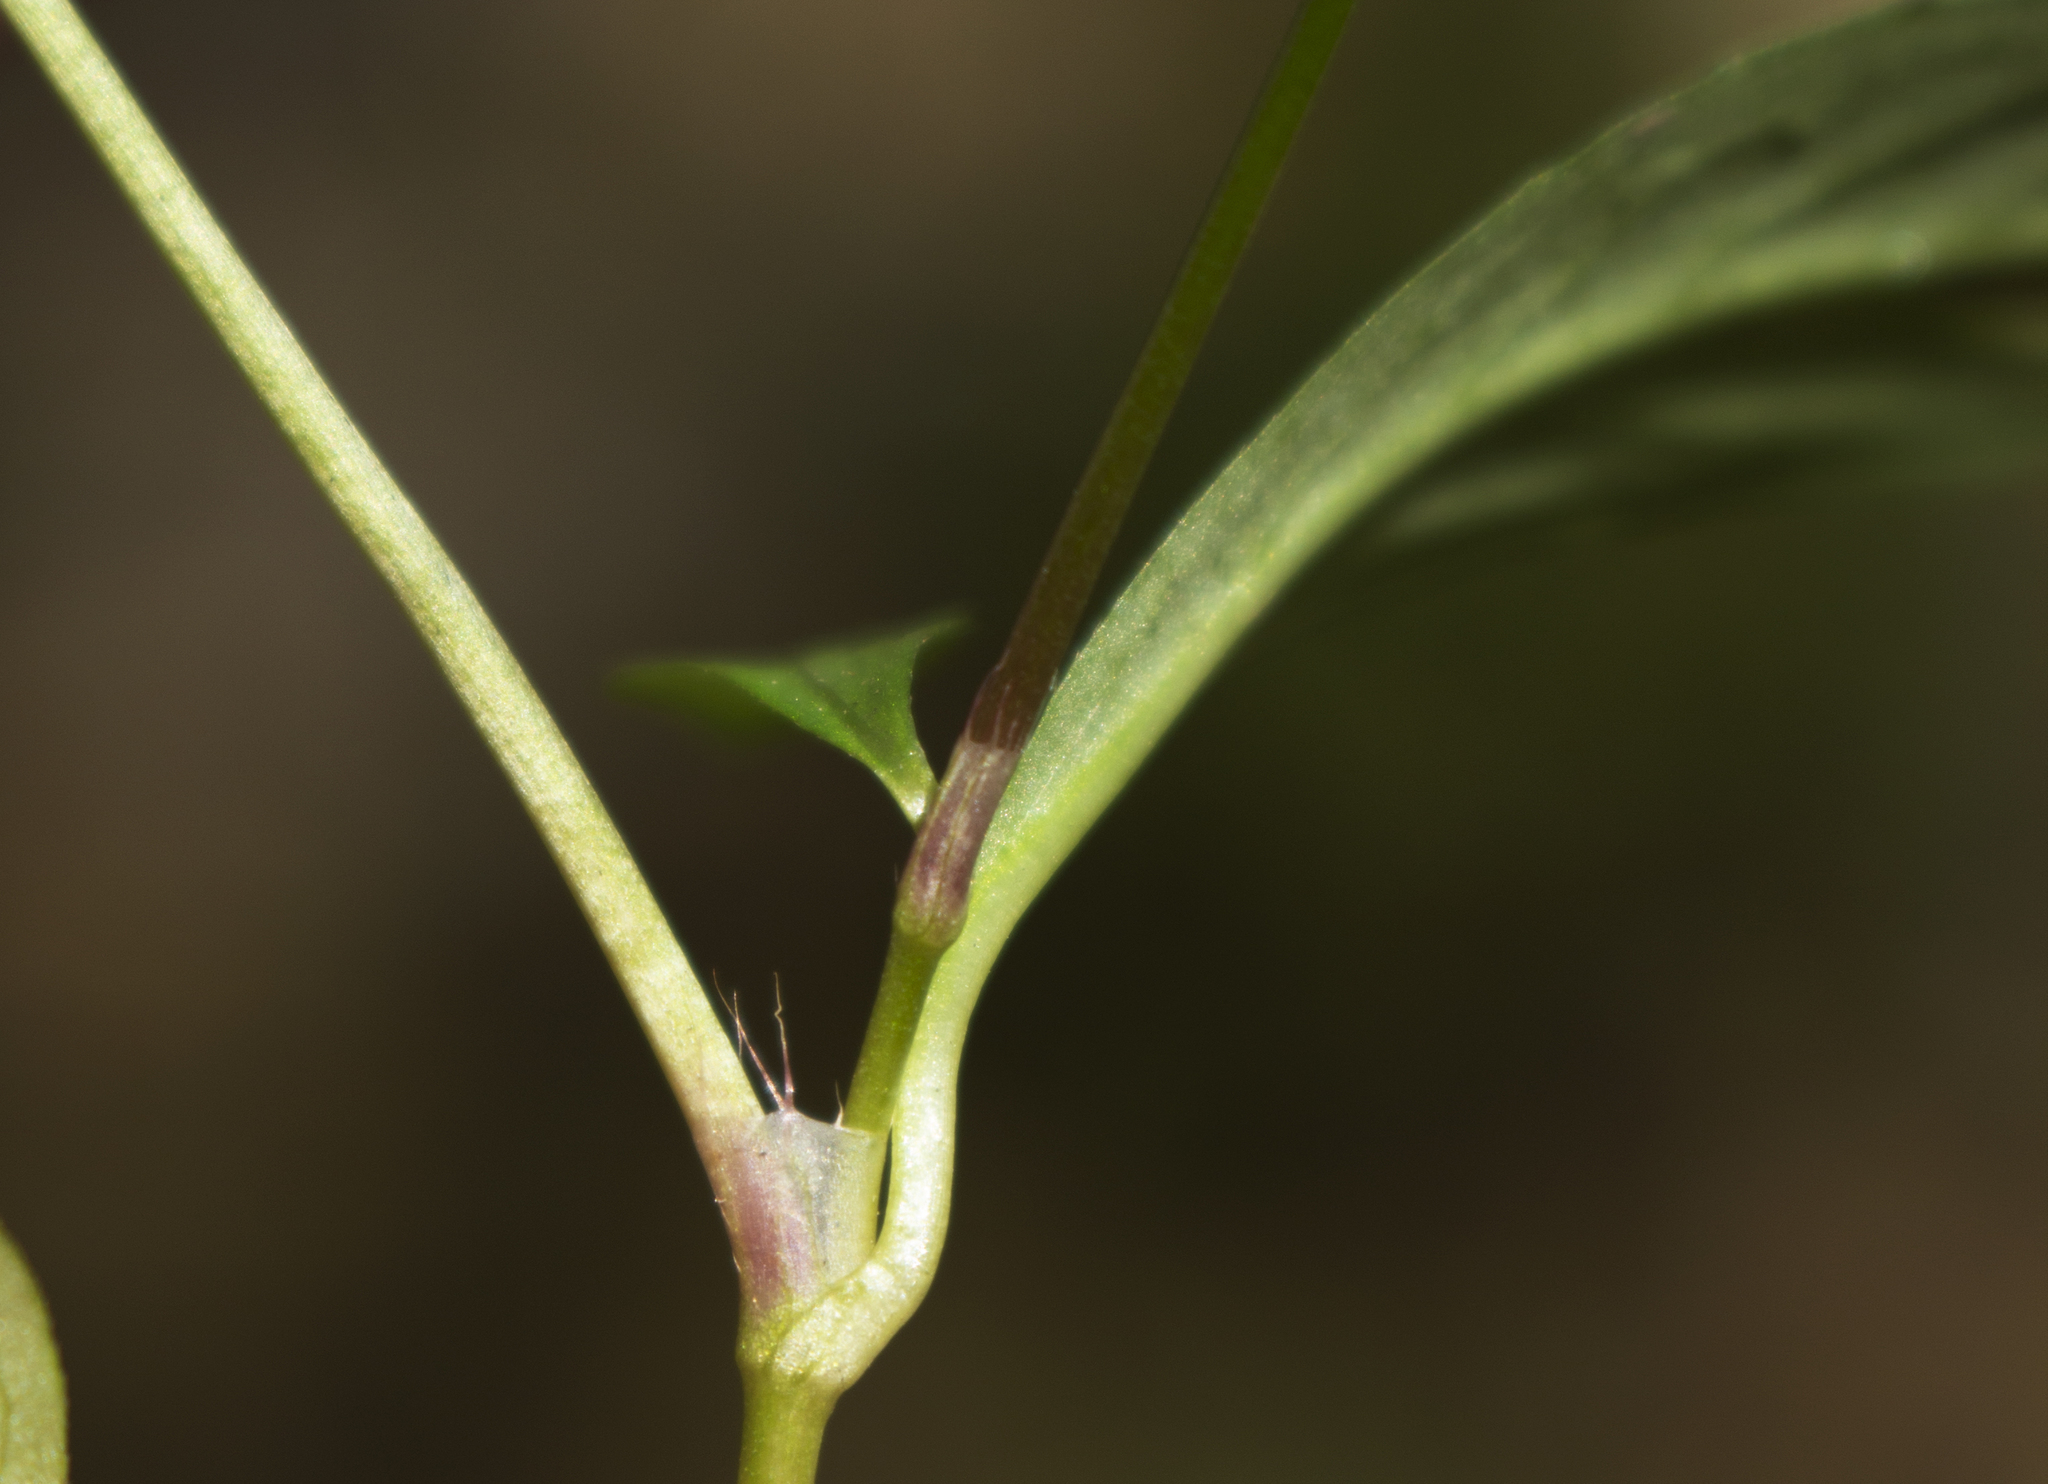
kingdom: Plantae
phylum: Tracheophyta
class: Magnoliopsida
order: Caryophyllales
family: Polygonaceae
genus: Persicaria
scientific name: Persicaria hydropiper
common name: Water-pepper
